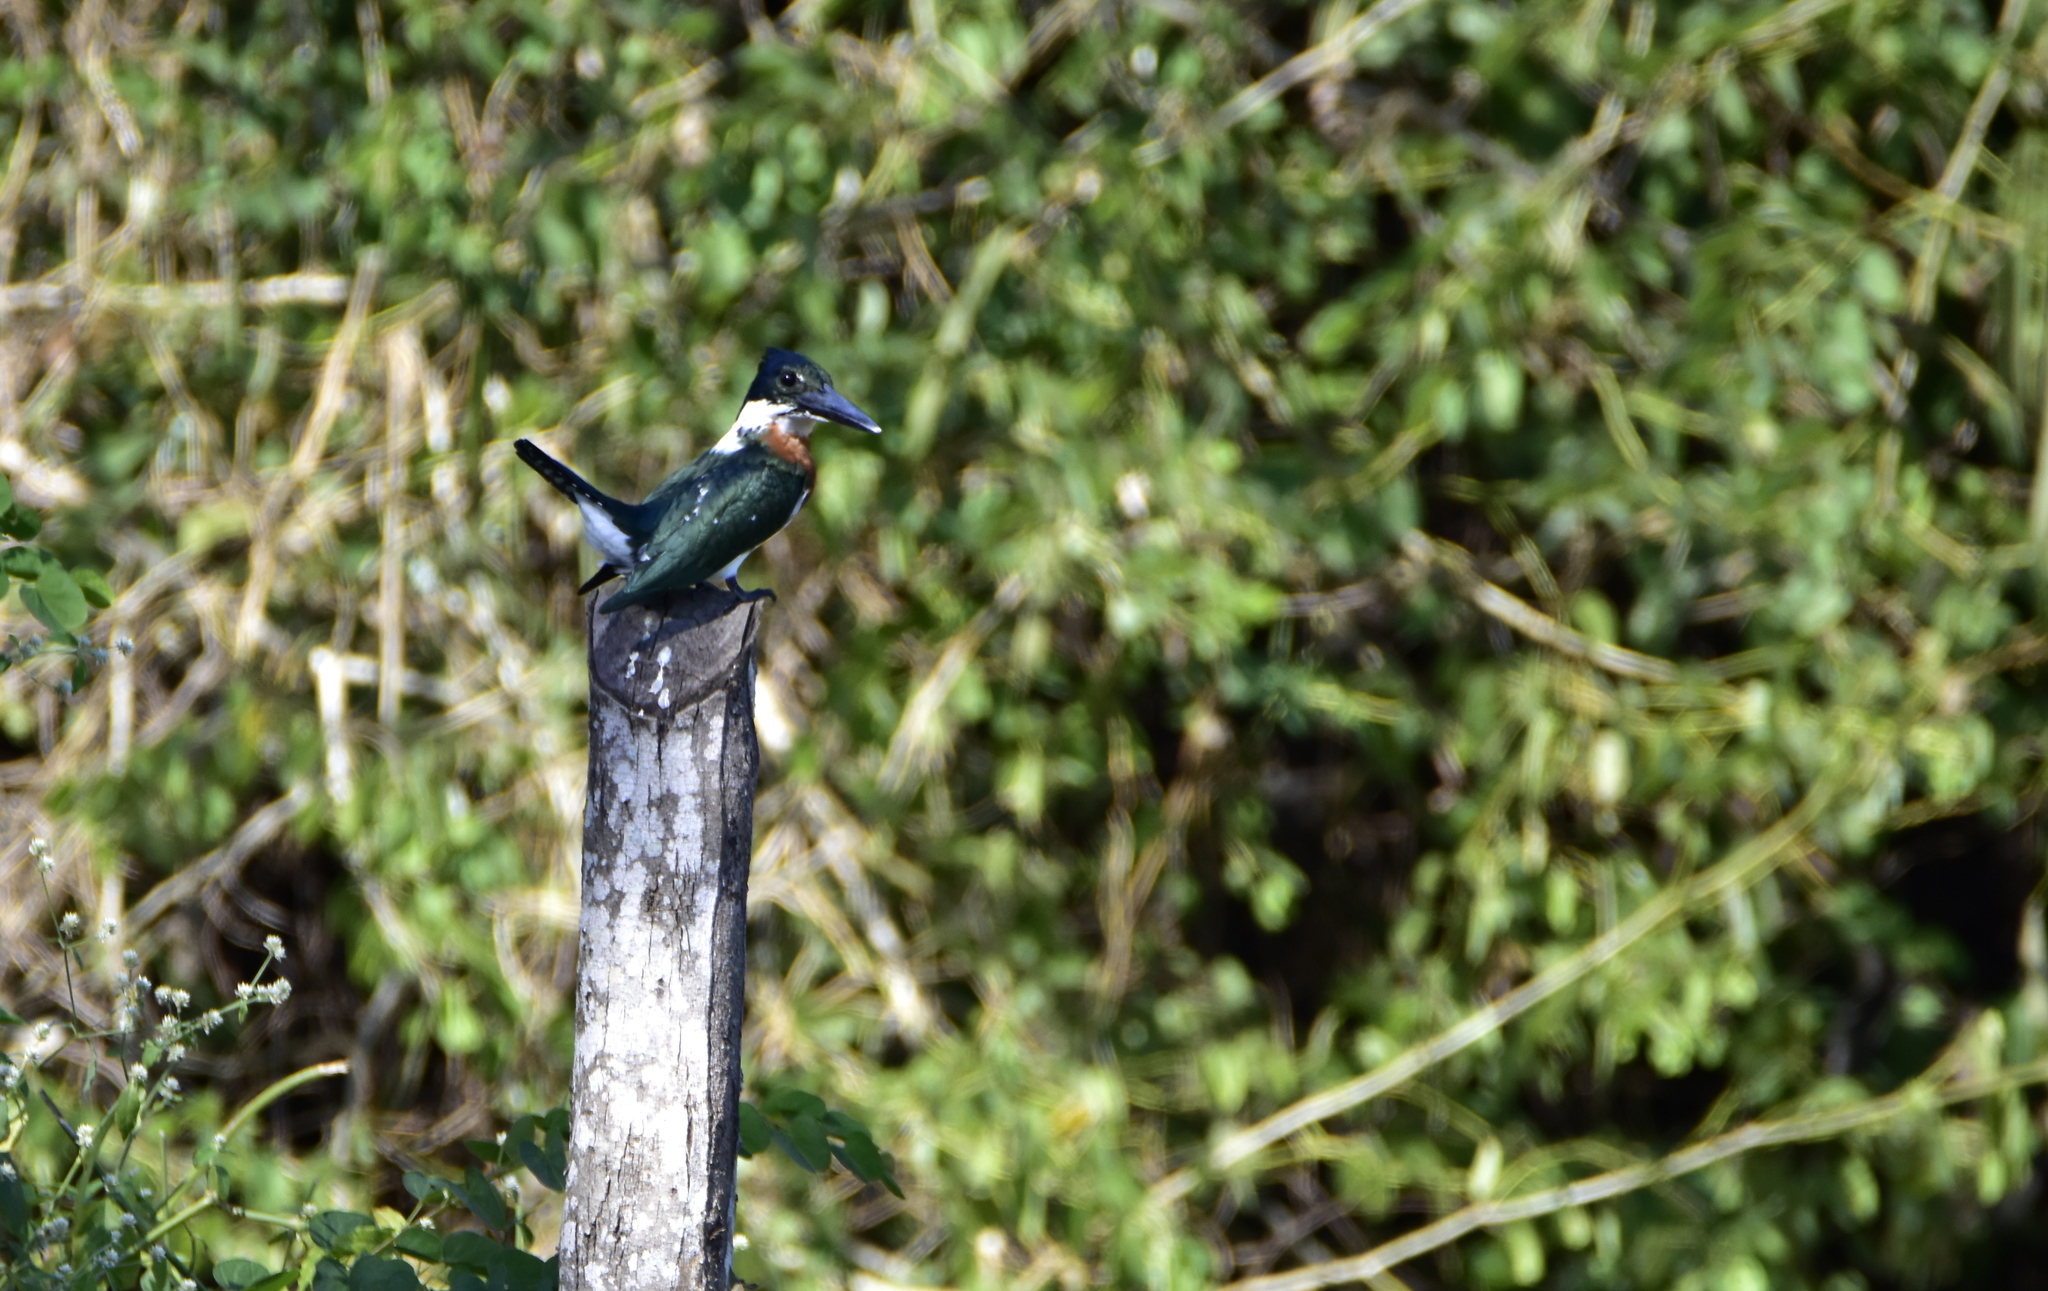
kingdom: Animalia
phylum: Chordata
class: Aves
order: Coraciiformes
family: Alcedinidae
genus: Chloroceryle
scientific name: Chloroceryle amazona
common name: Amazon kingfisher
